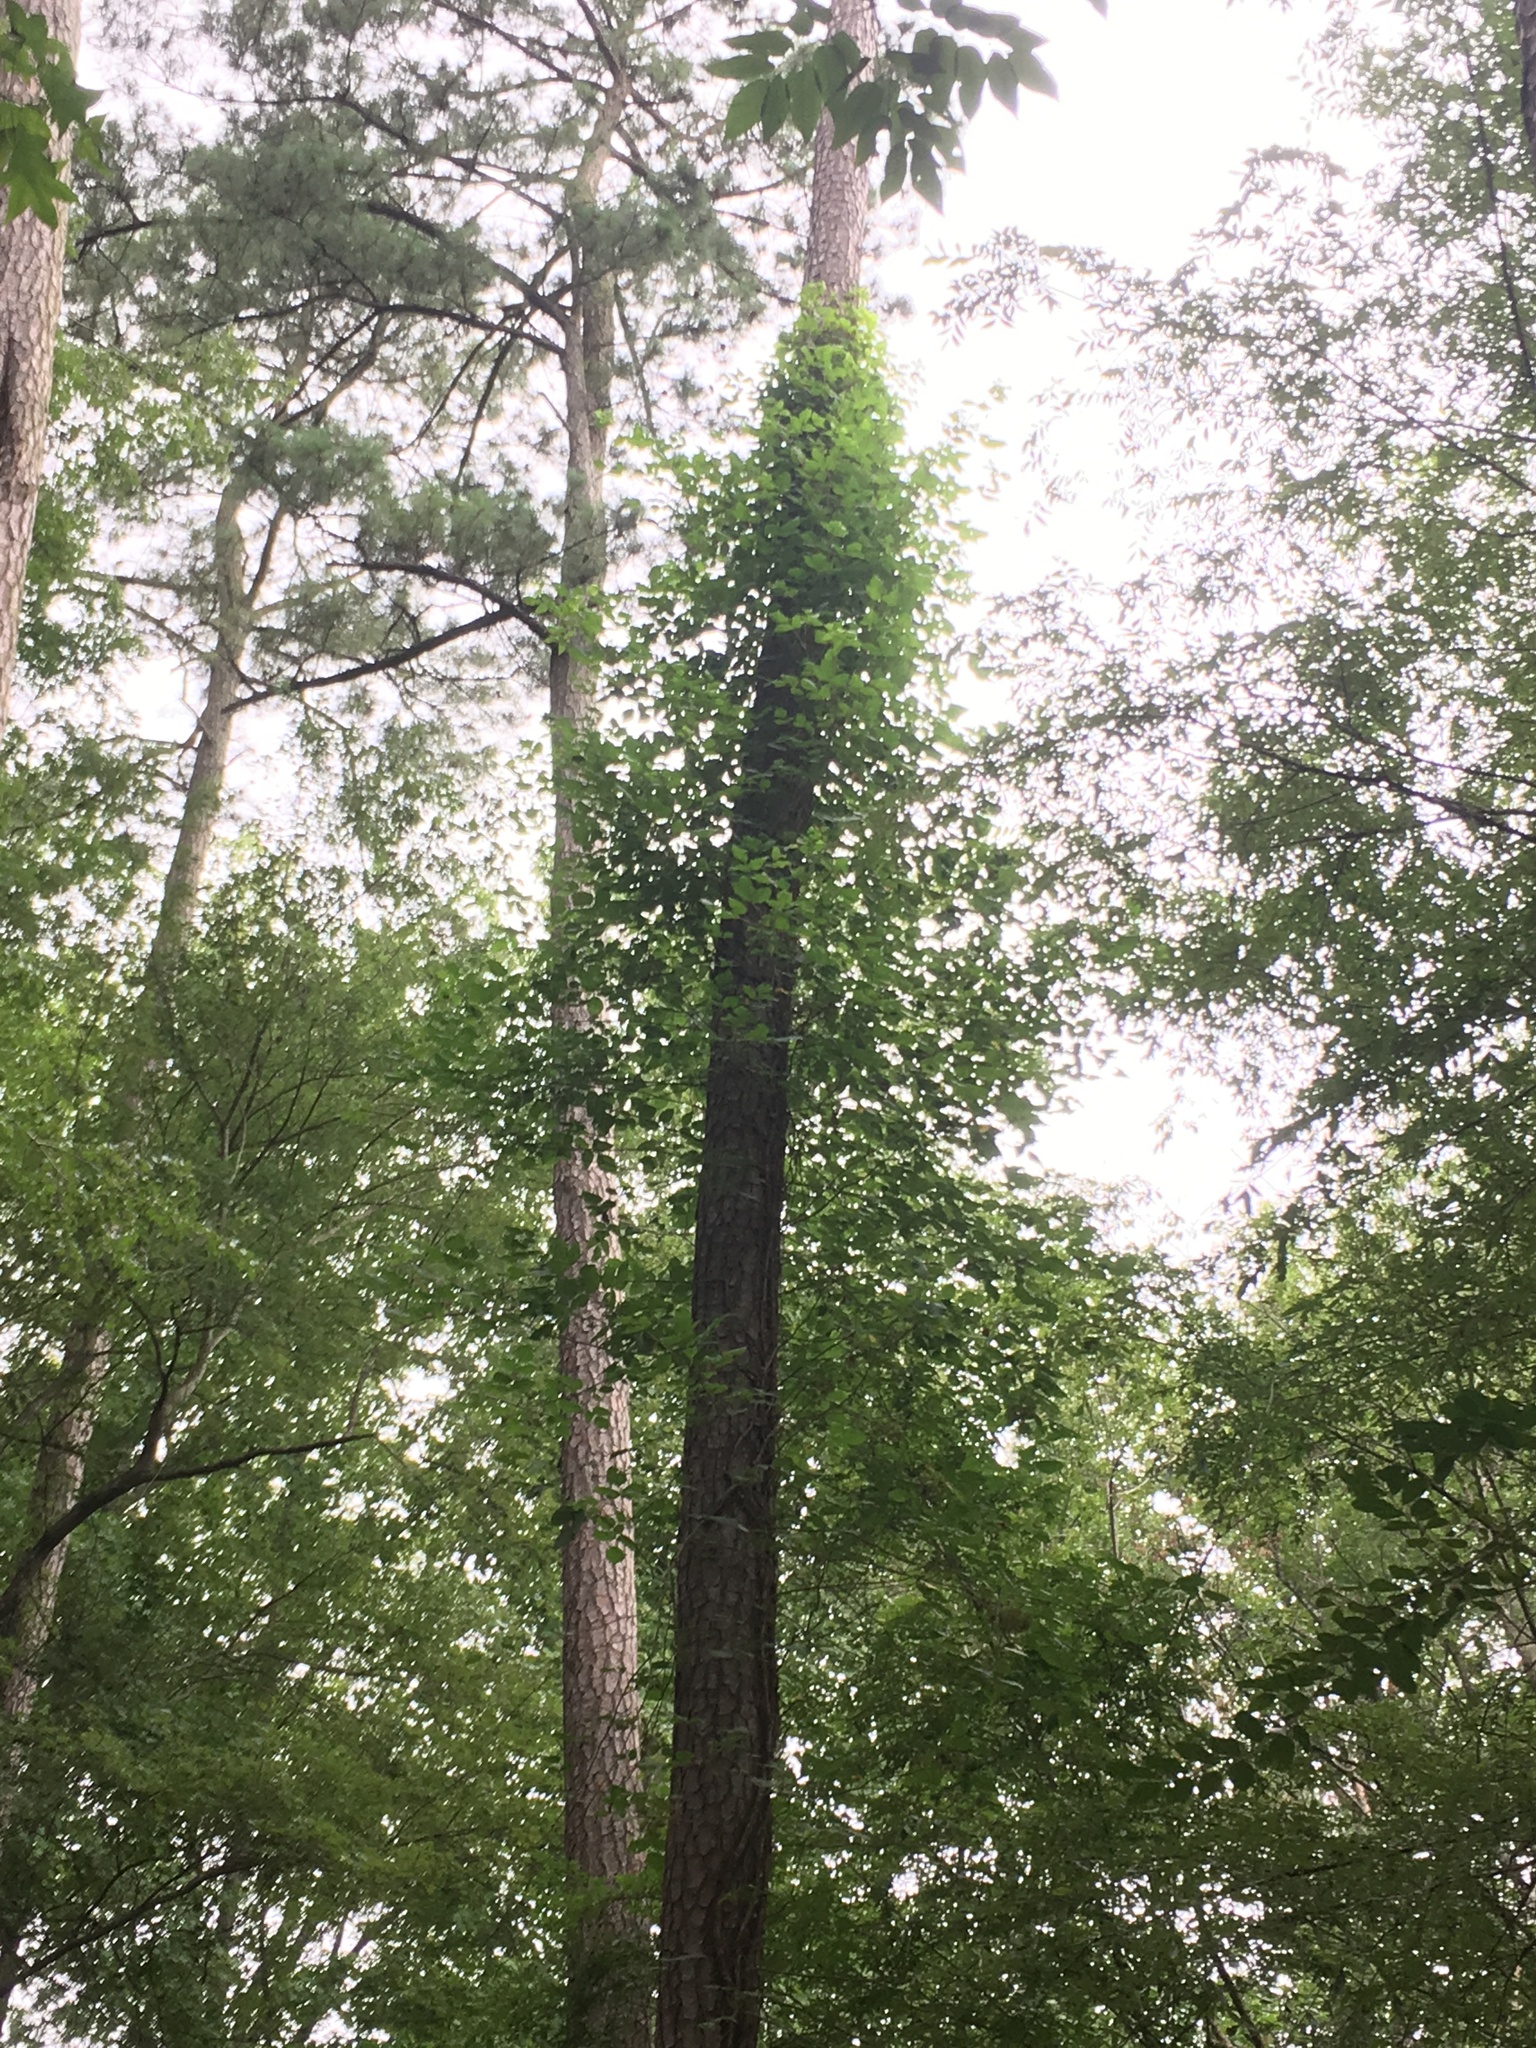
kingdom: Plantae
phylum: Tracheophyta
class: Magnoliopsida
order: Sapindales
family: Anacardiaceae
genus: Toxicodendron
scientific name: Toxicodendron radicans
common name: Poison ivy
